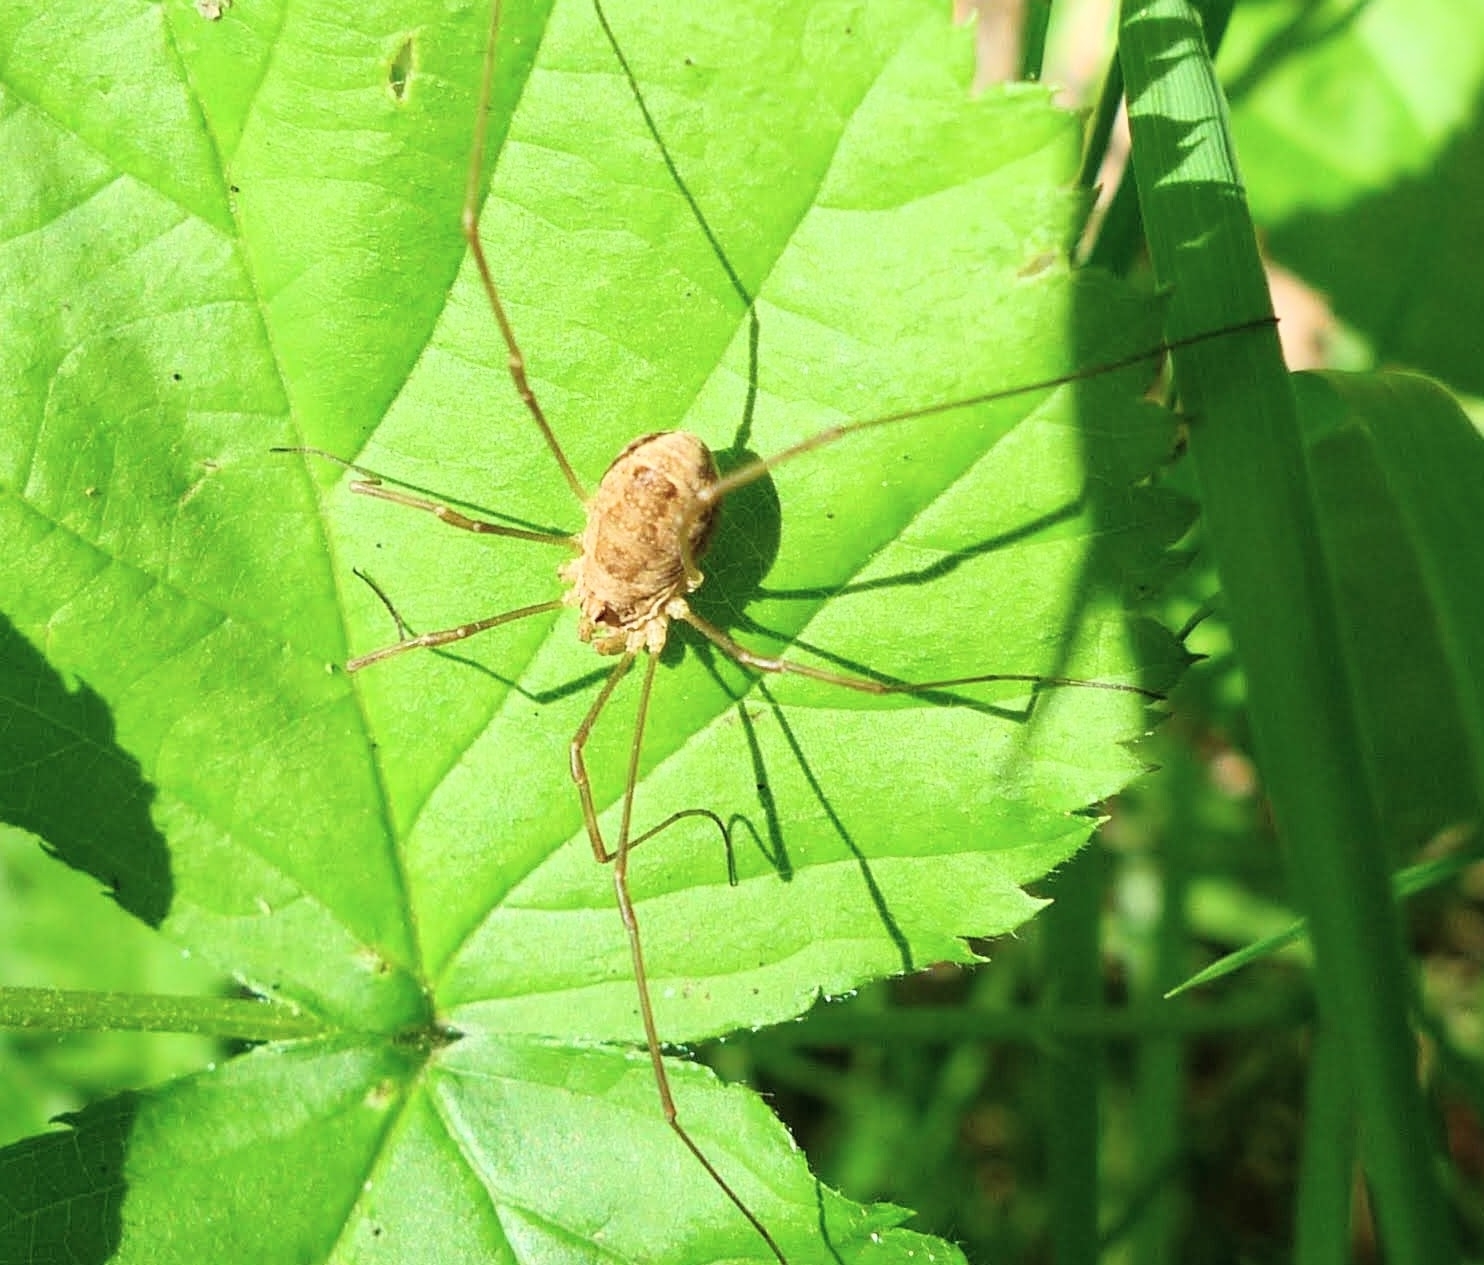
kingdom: Animalia
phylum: Arthropoda
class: Arachnida
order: Opiliones
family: Phalangiidae
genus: Rilaena
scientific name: Rilaena triangularis
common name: Spring harvestman
